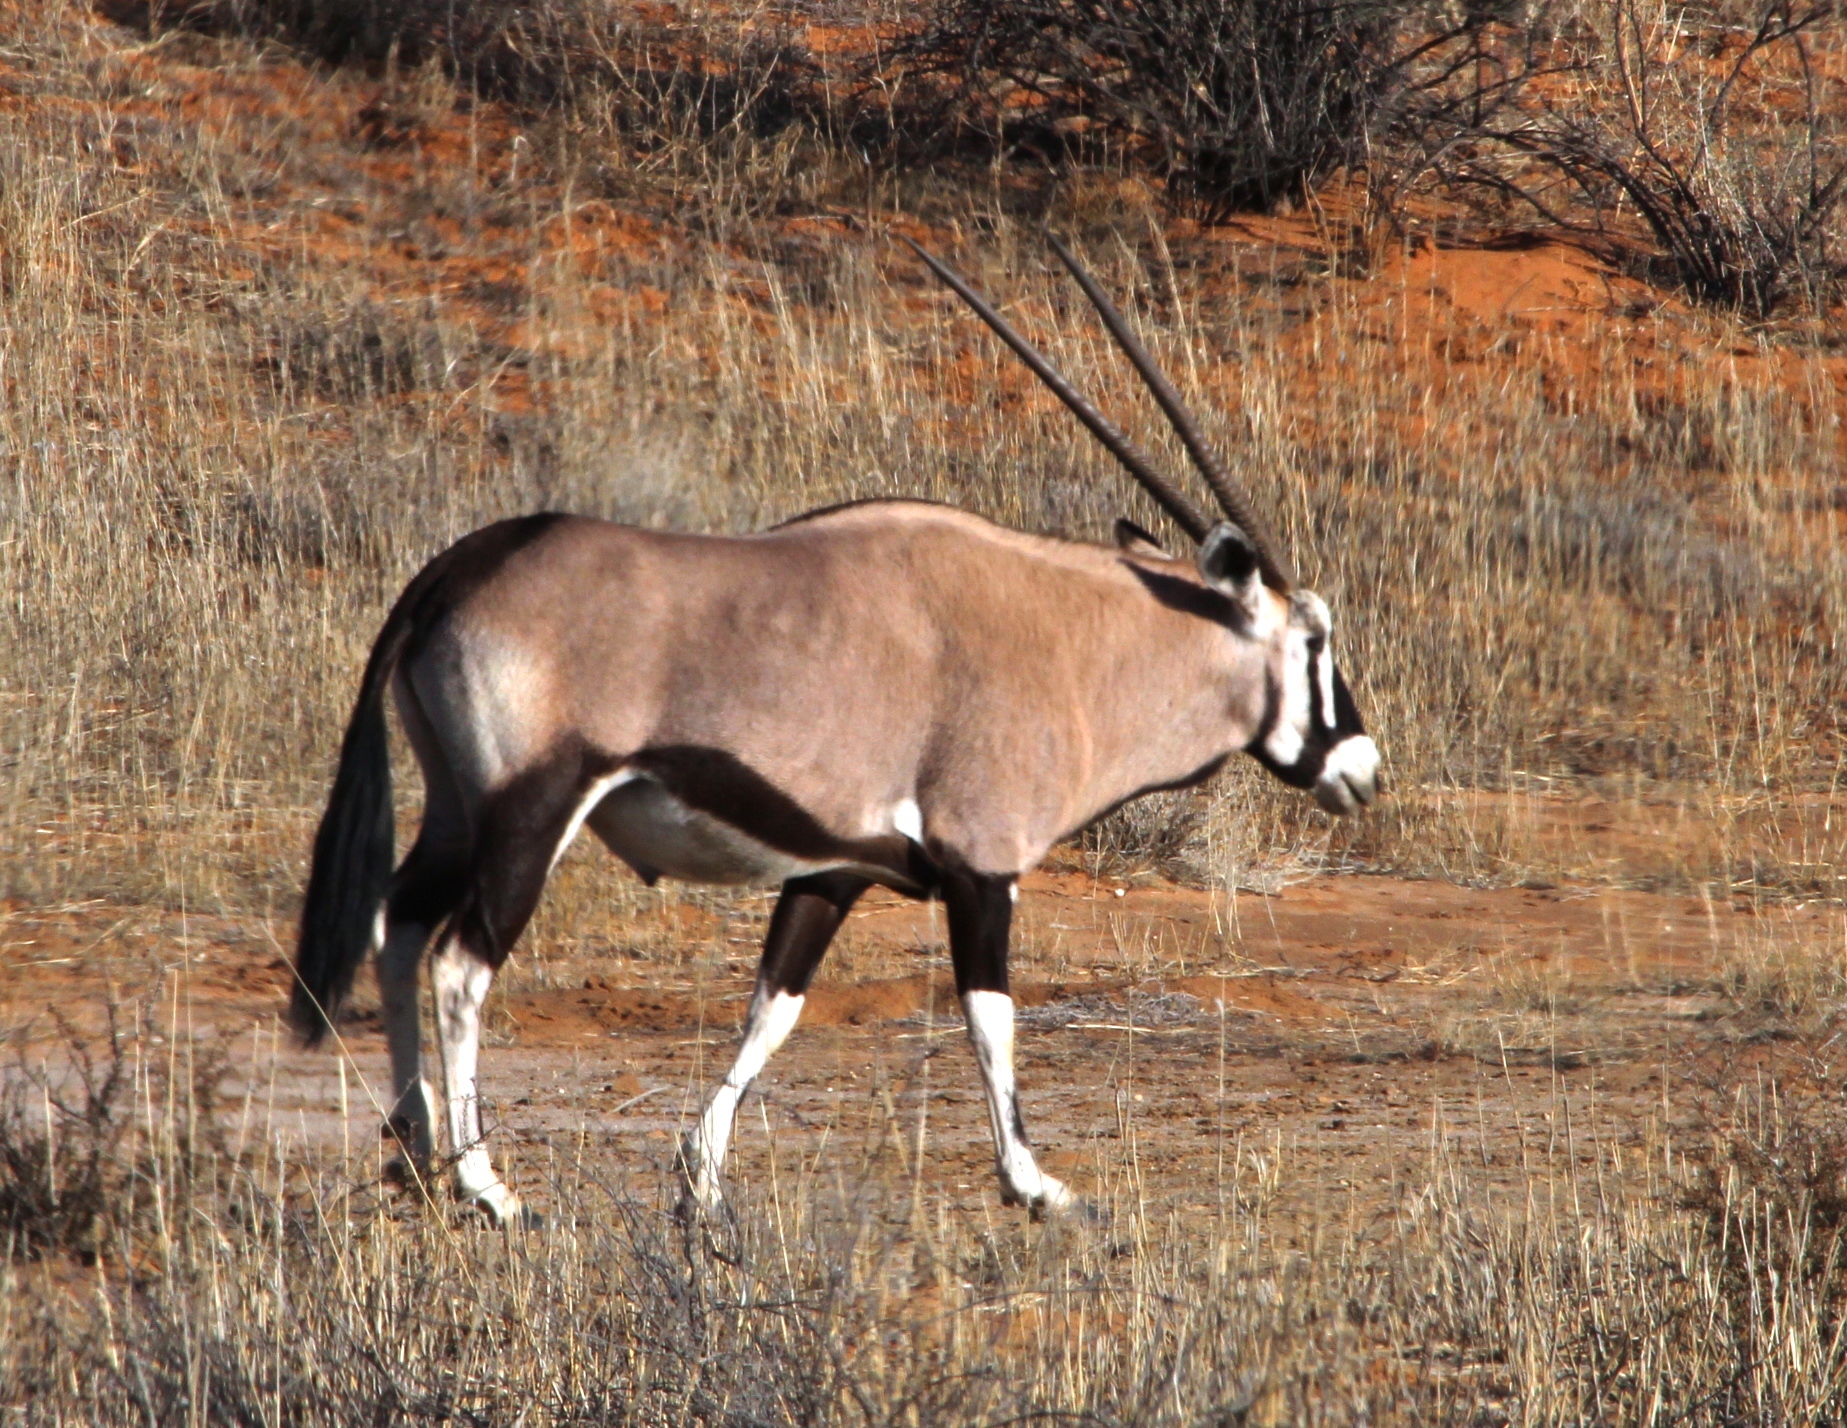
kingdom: Animalia
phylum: Chordata
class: Mammalia
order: Artiodactyla
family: Bovidae
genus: Oryx
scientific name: Oryx gazella
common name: Gemsbok
